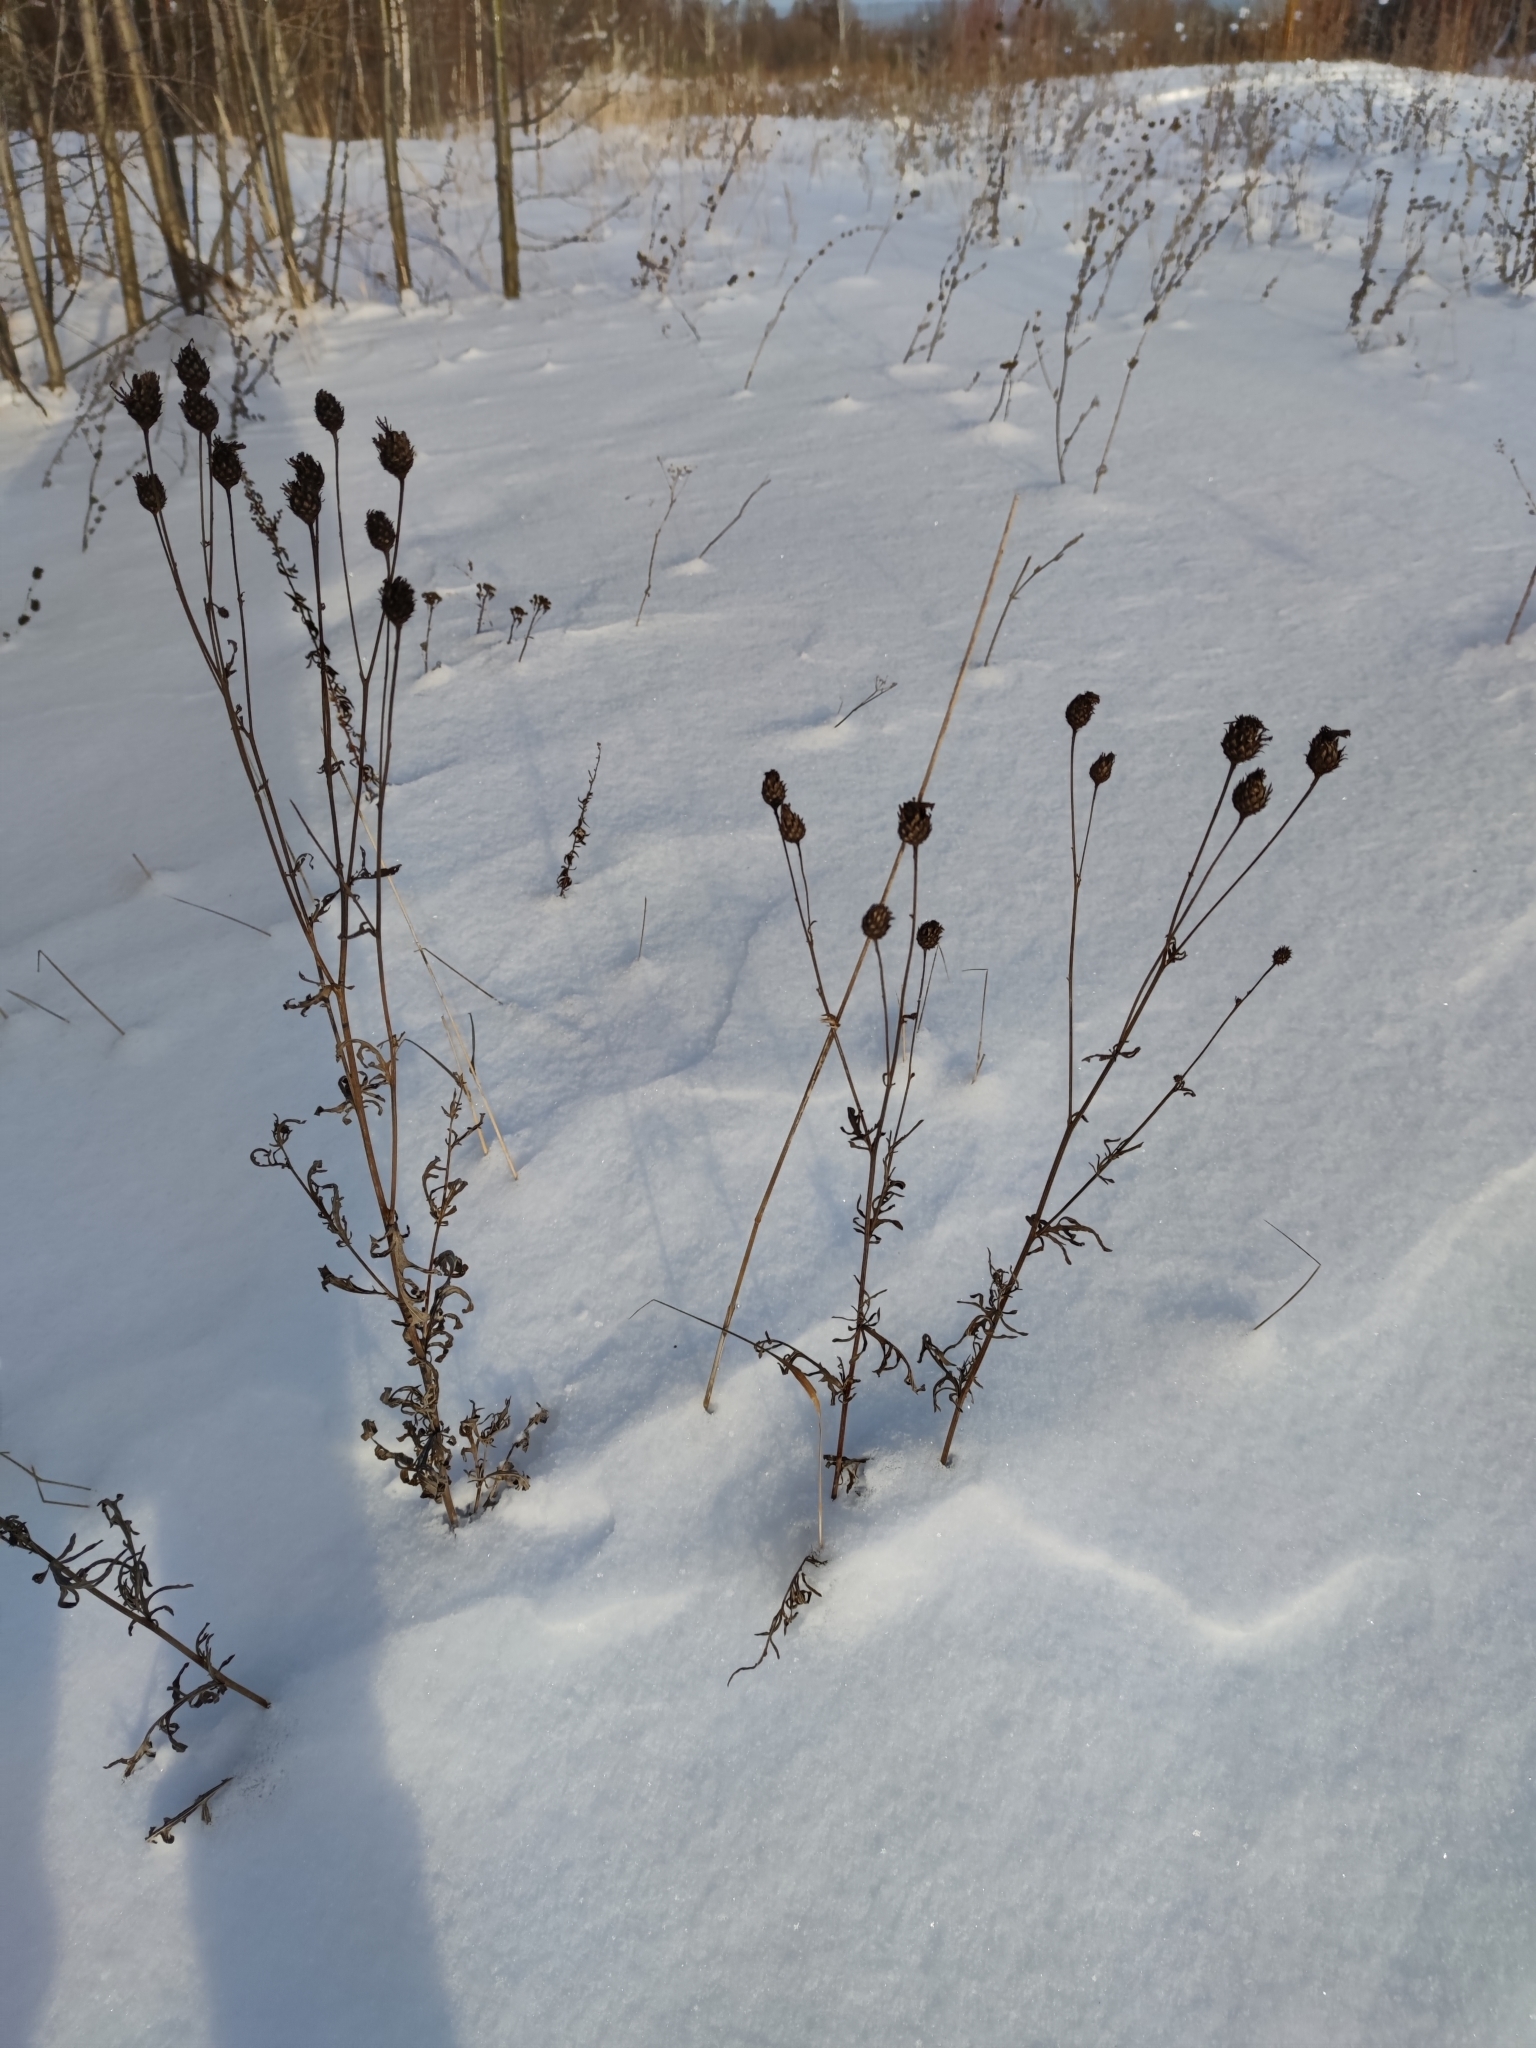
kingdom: Plantae
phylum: Tracheophyta
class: Magnoliopsida
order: Asterales
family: Asteraceae
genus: Centaurea
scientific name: Centaurea scabiosa
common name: Greater knapweed
